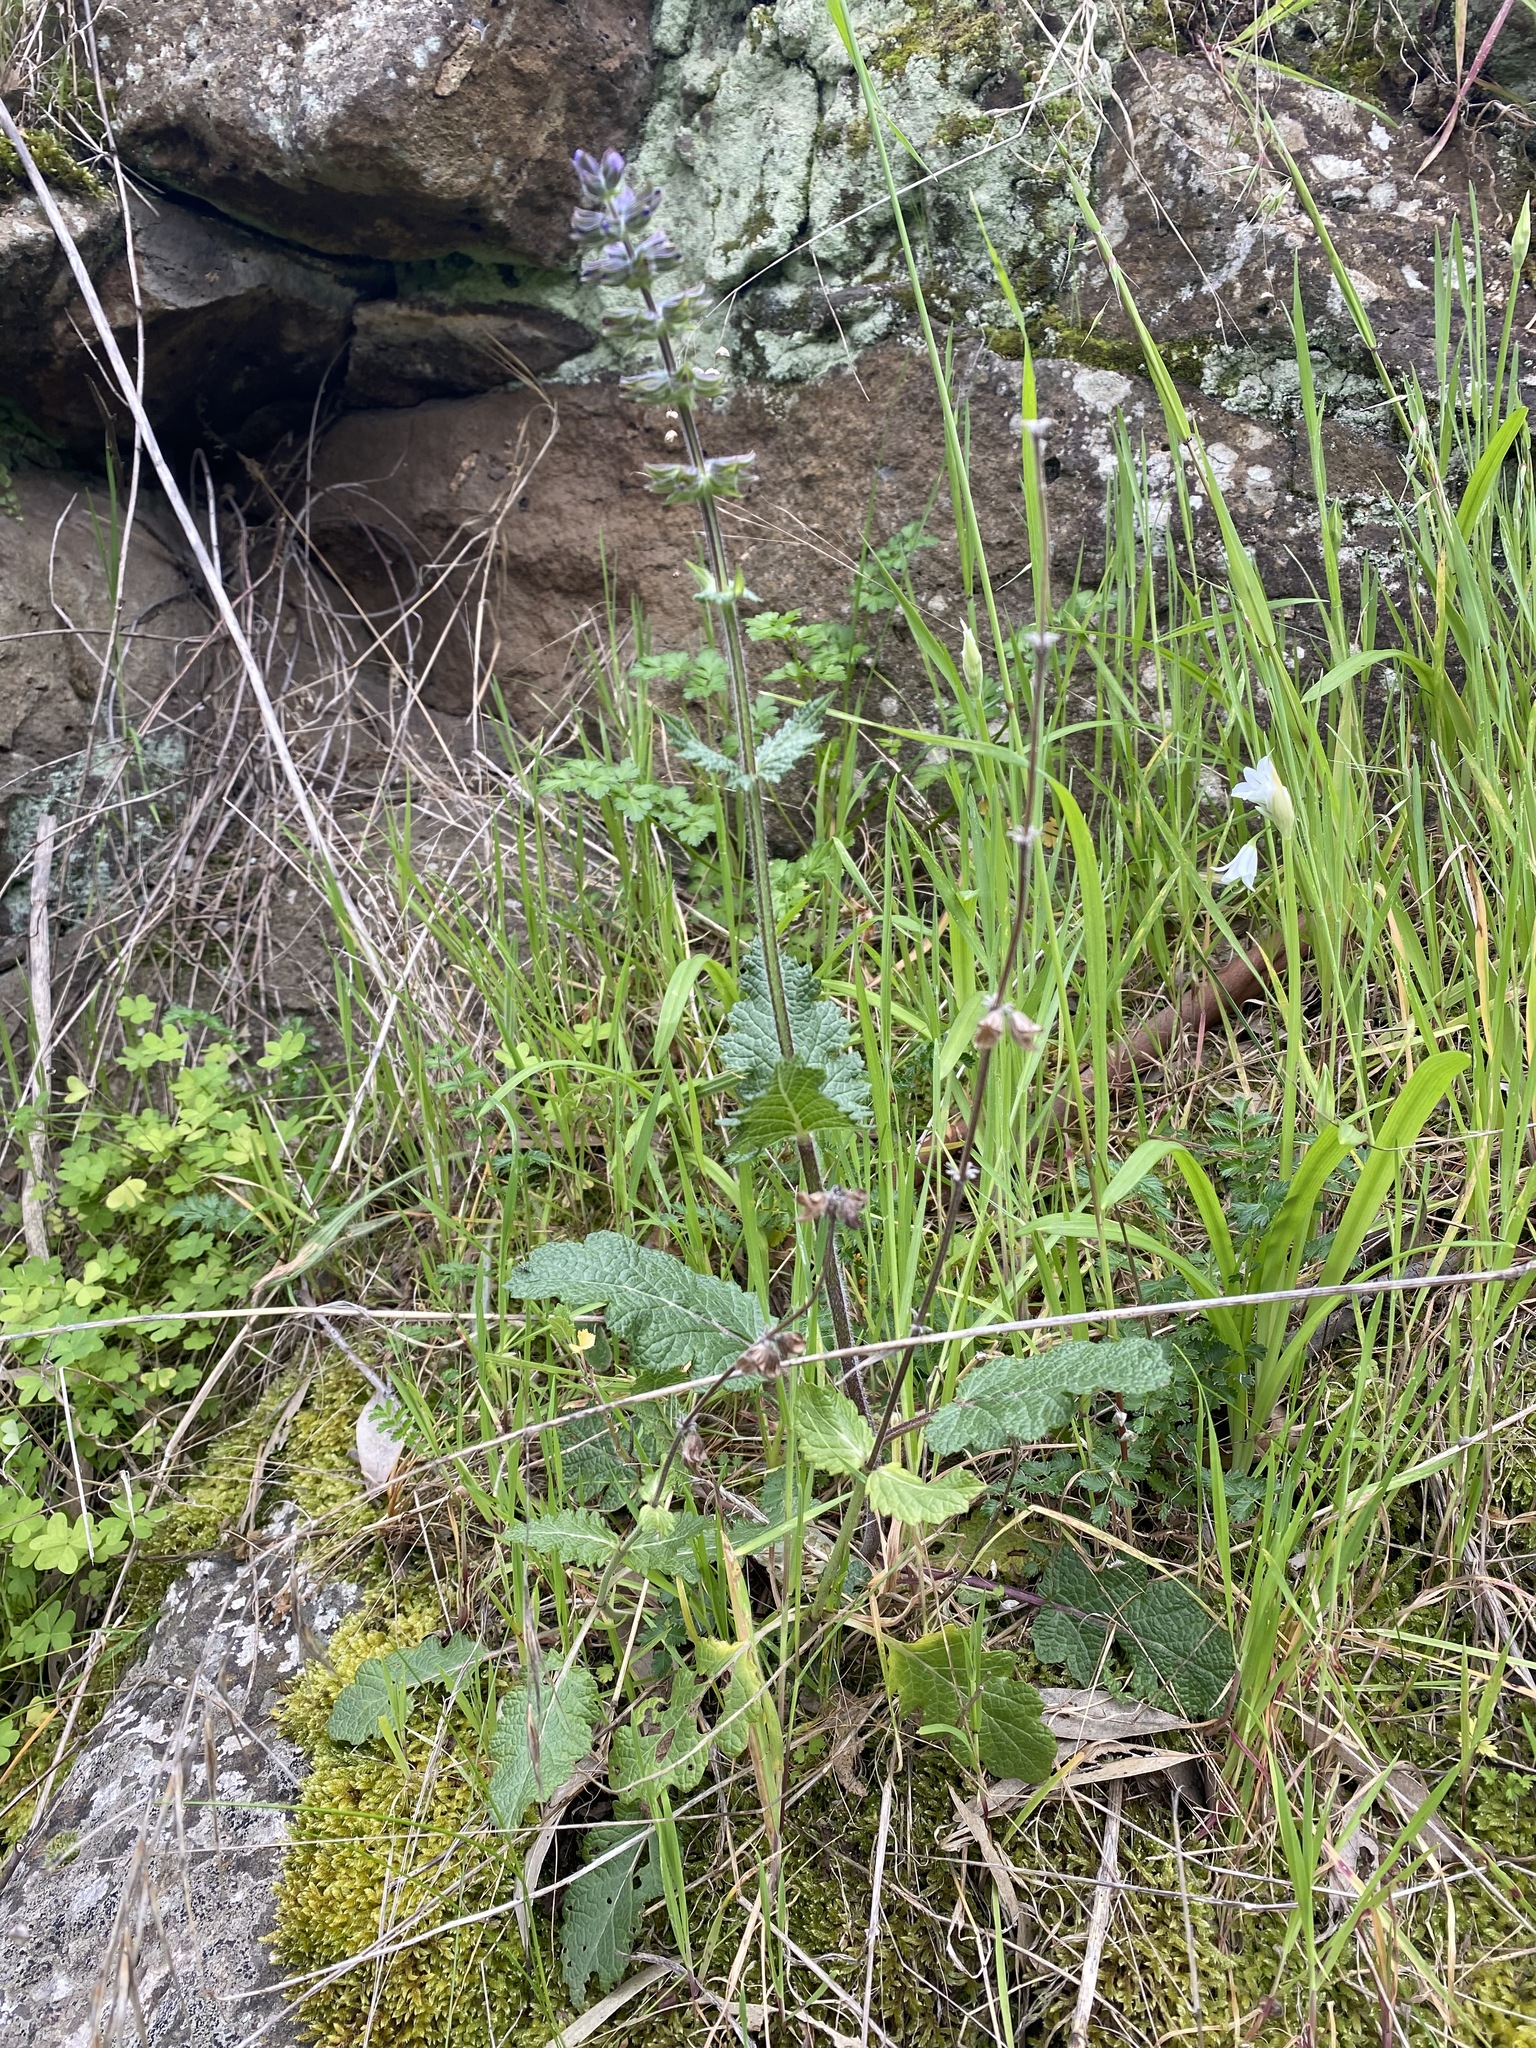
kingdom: Plantae
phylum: Tracheophyta
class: Magnoliopsida
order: Lamiales
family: Lamiaceae
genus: Salvia
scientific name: Salvia verbenaca
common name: Wild clary
